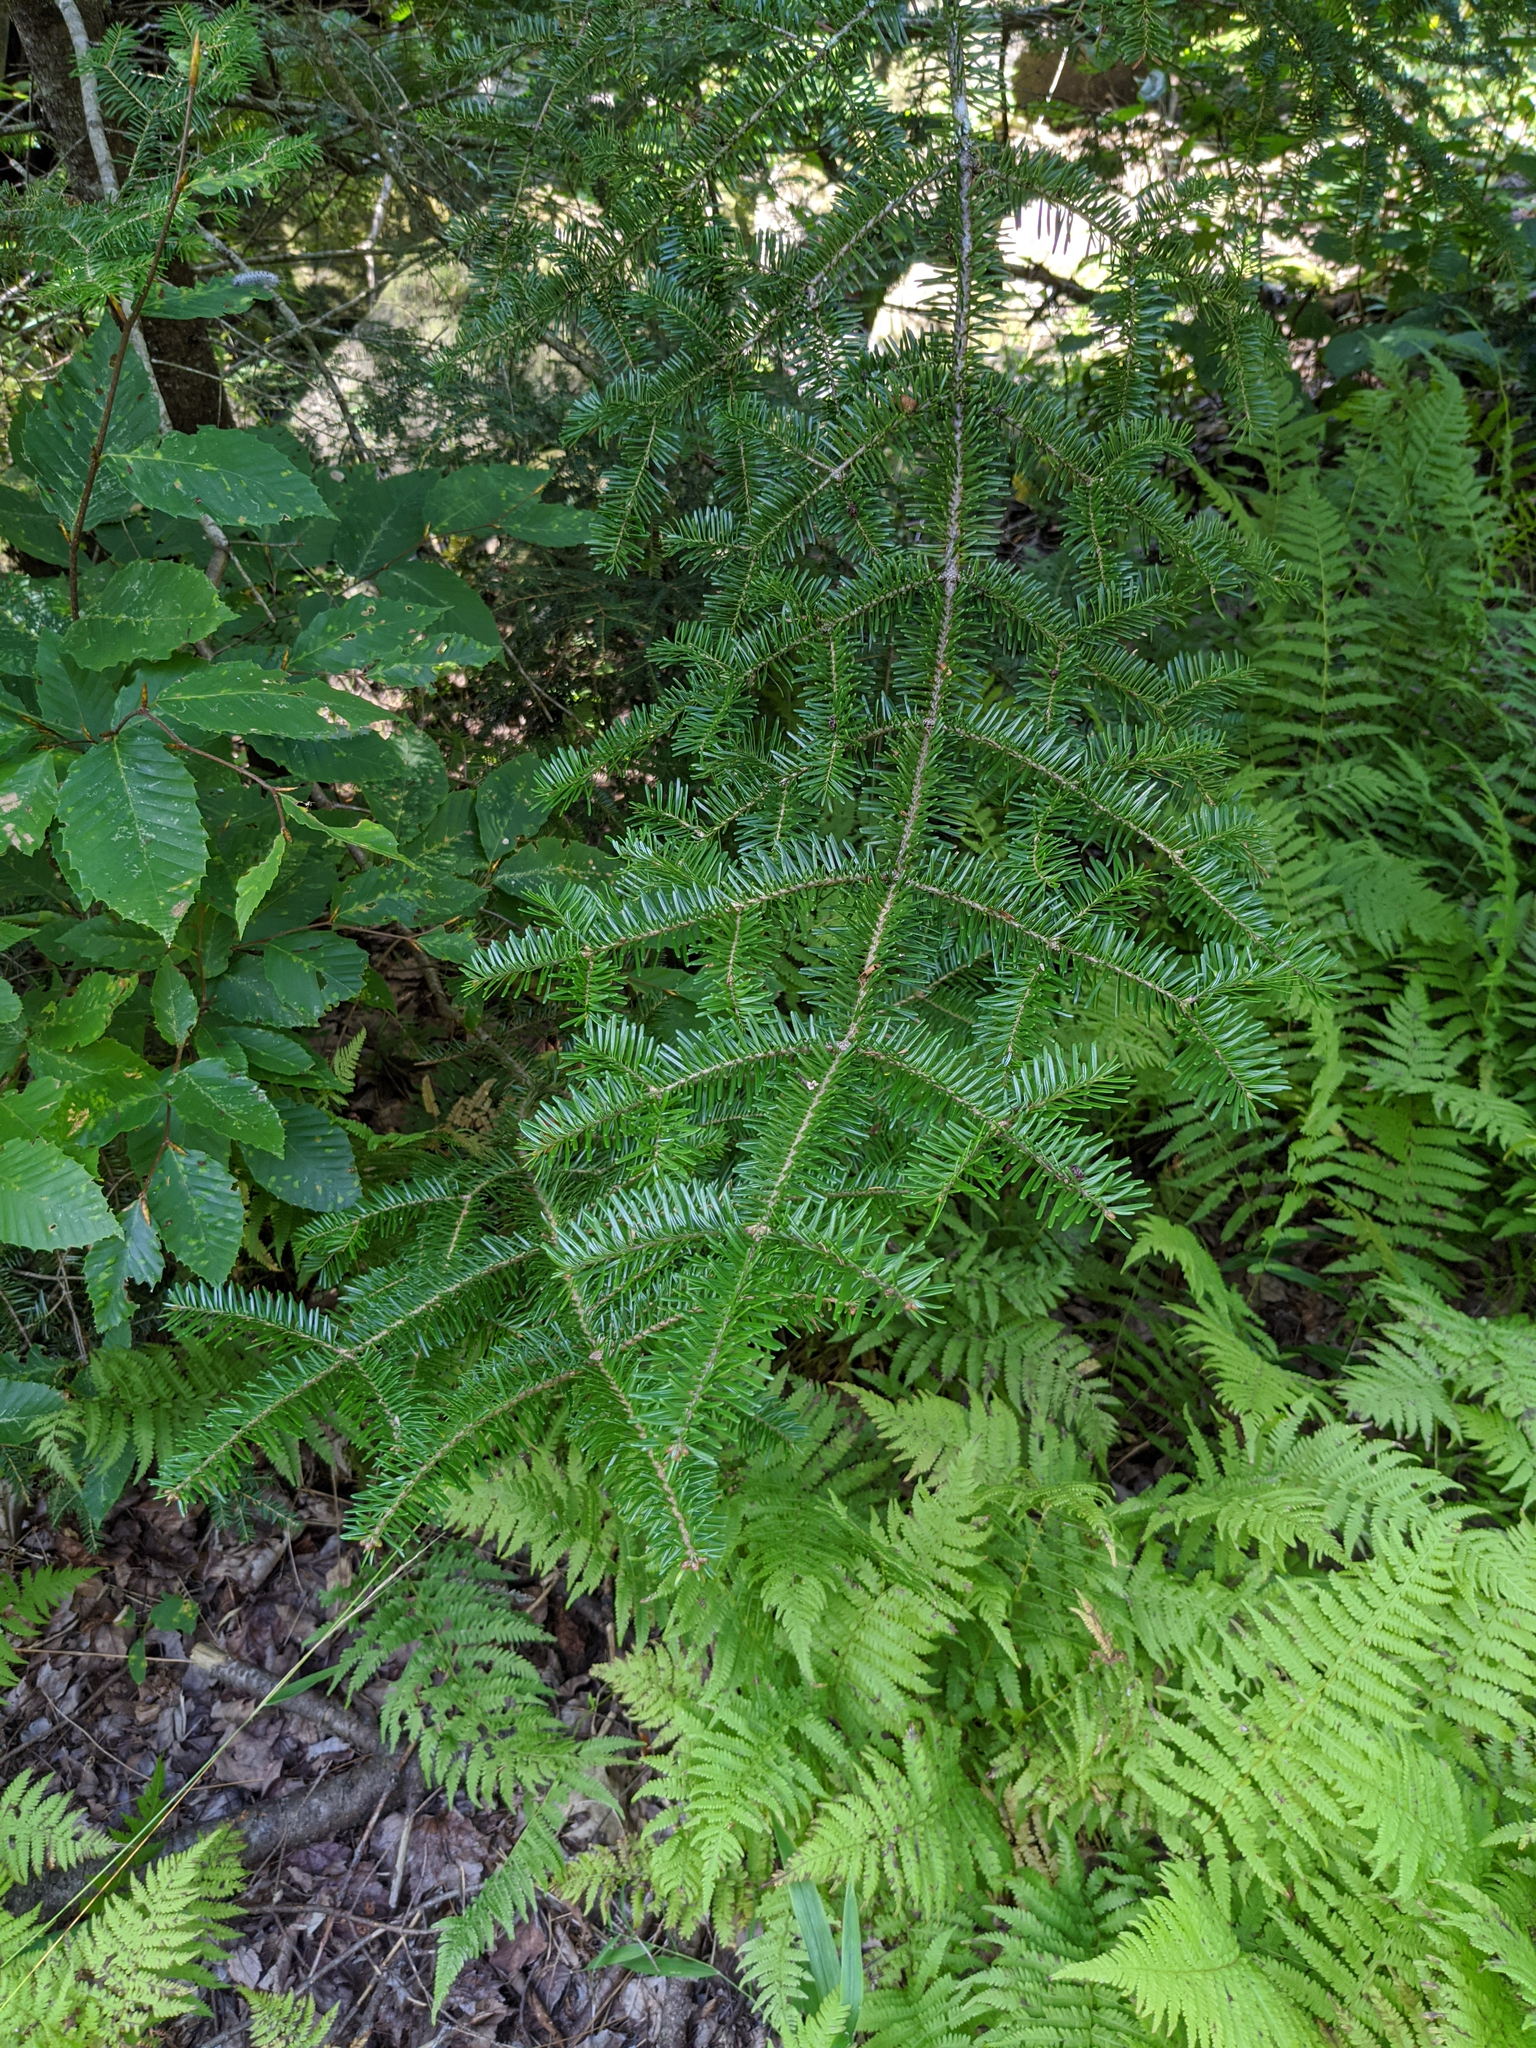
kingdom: Plantae
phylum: Tracheophyta
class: Pinopsida
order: Pinales
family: Pinaceae
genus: Abies
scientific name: Abies balsamea
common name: Balsam fir
